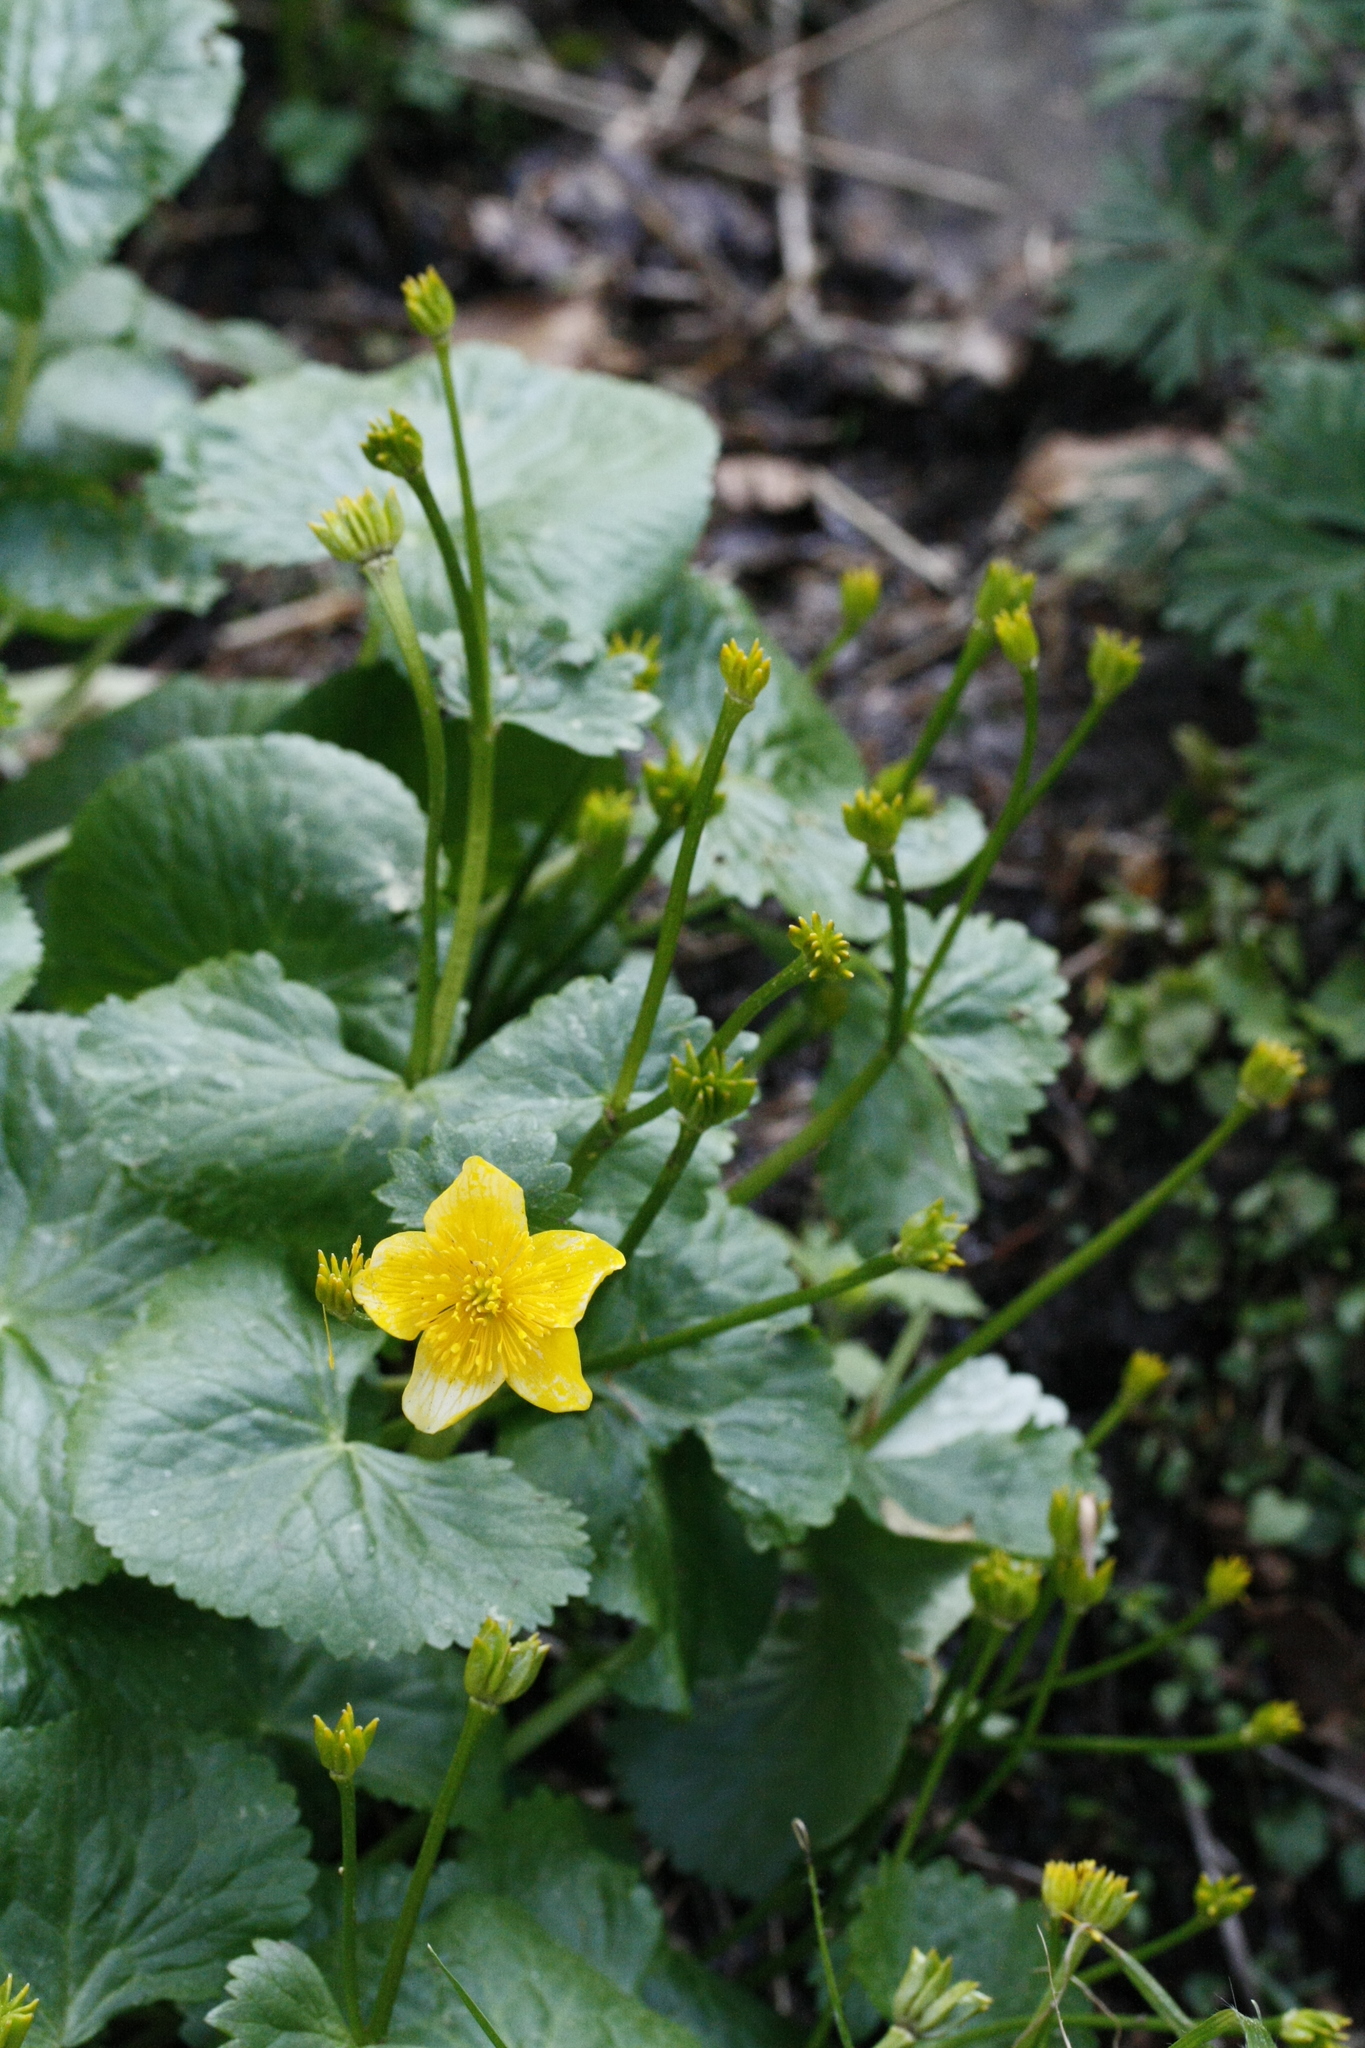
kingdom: Plantae
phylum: Tracheophyta
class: Magnoliopsida
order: Ranunculales
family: Ranunculaceae
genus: Caltha
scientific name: Caltha palustris
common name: Marsh marigold
